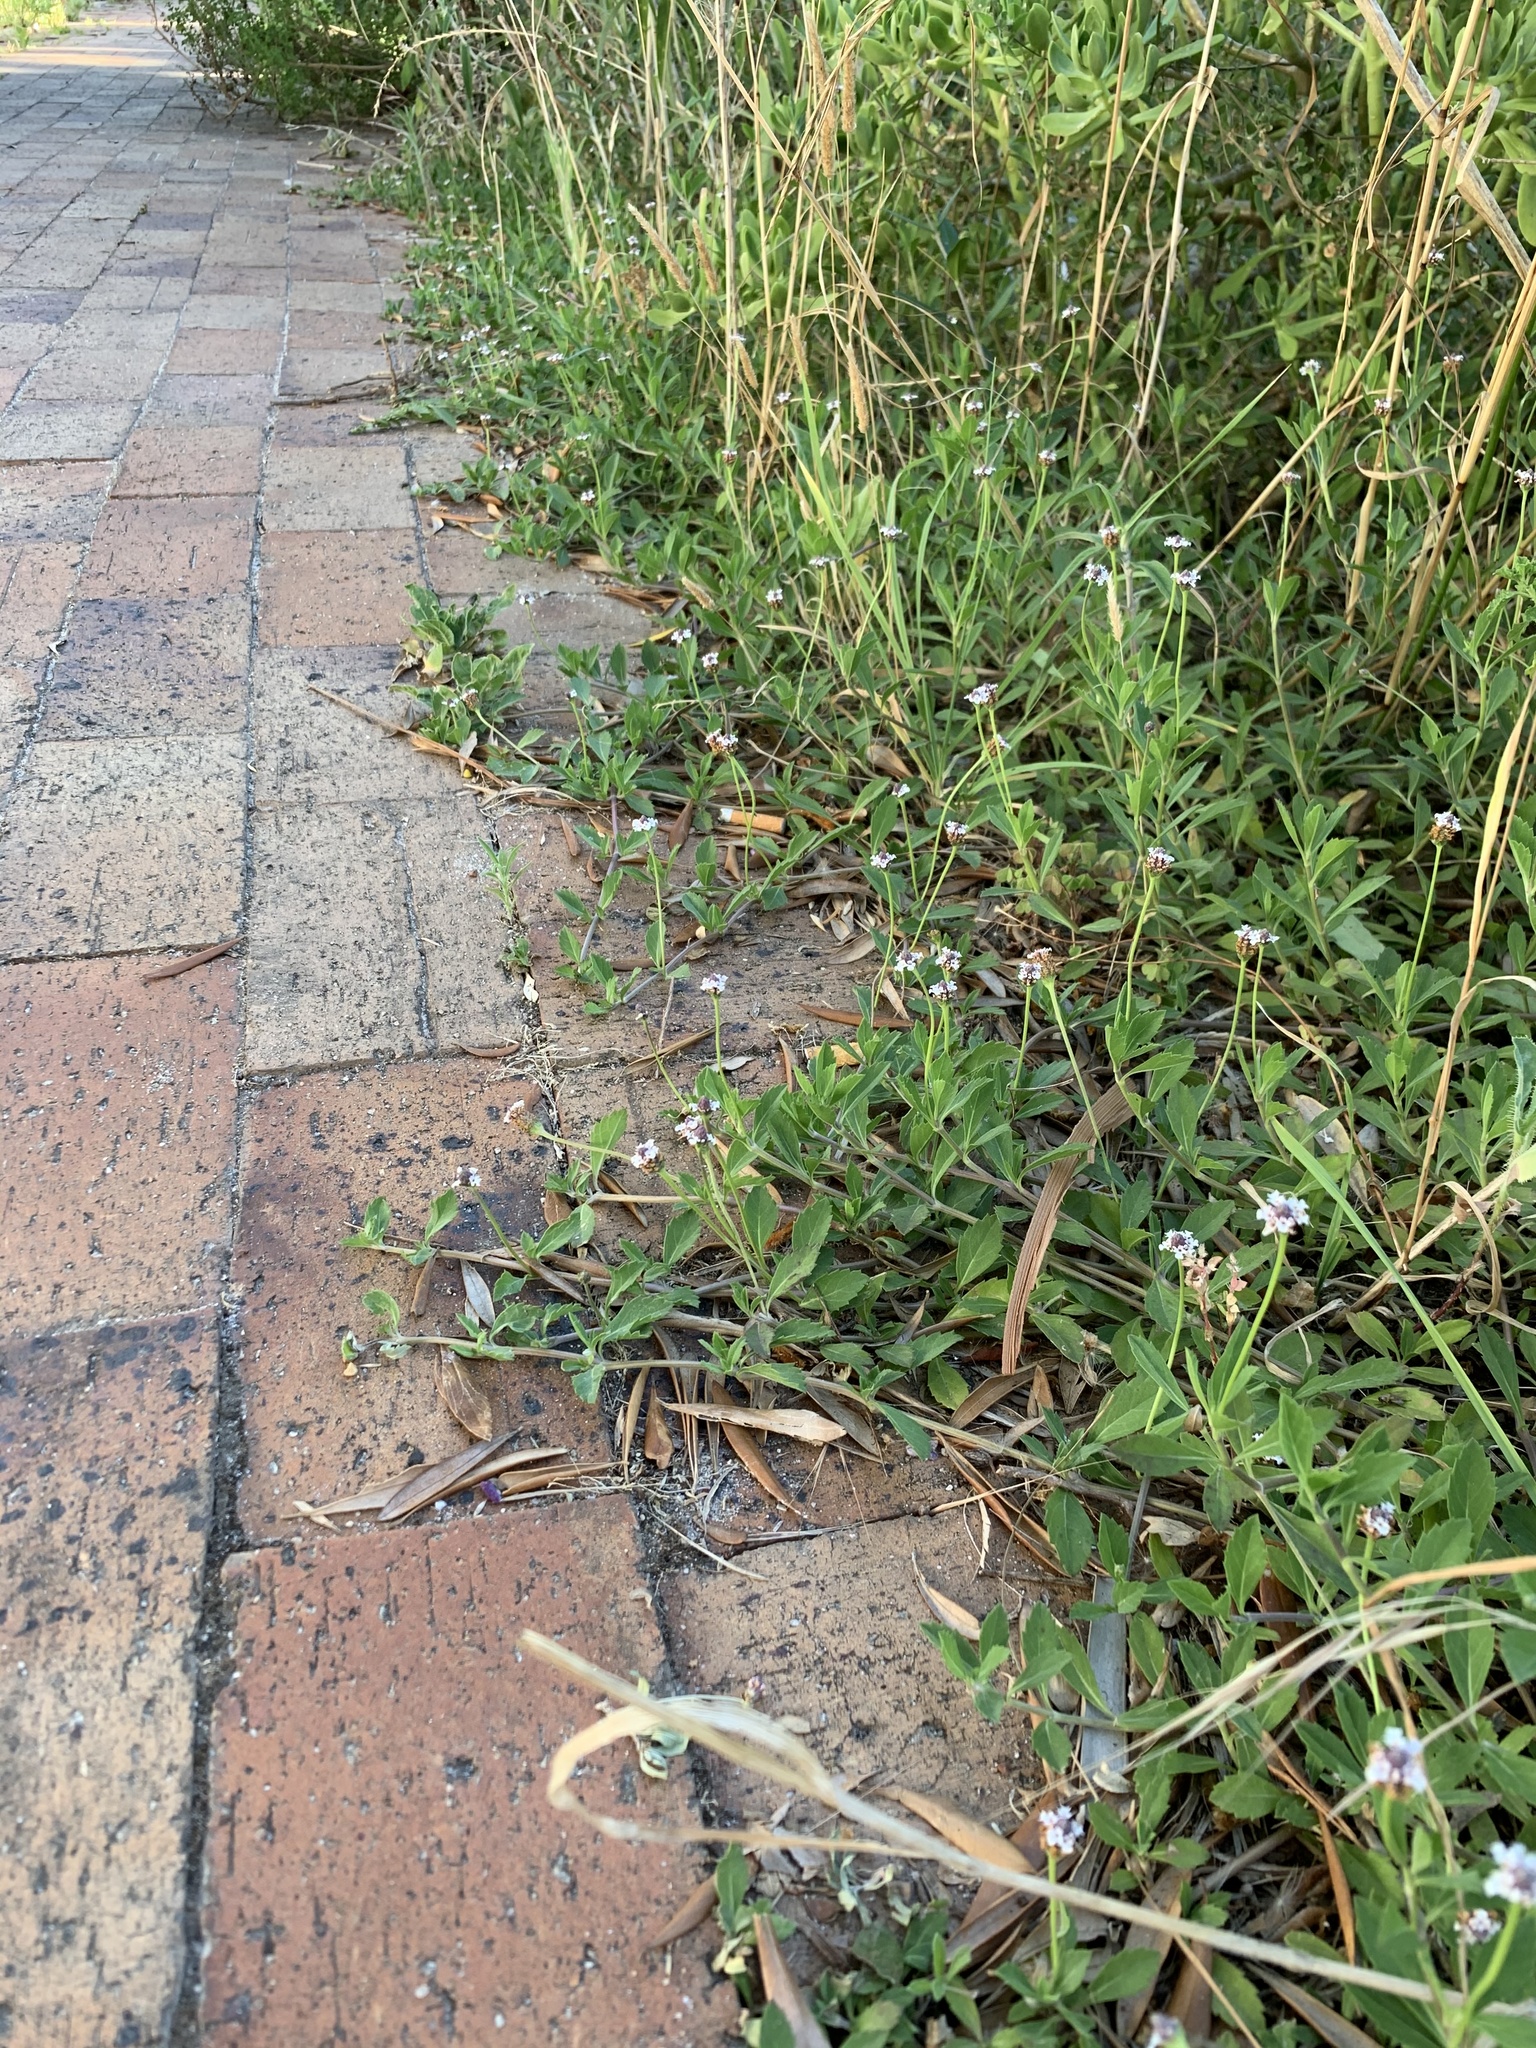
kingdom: Plantae
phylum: Tracheophyta
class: Magnoliopsida
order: Lamiales
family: Verbenaceae
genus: Phyla
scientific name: Phyla nodiflora
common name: Frogfruit
